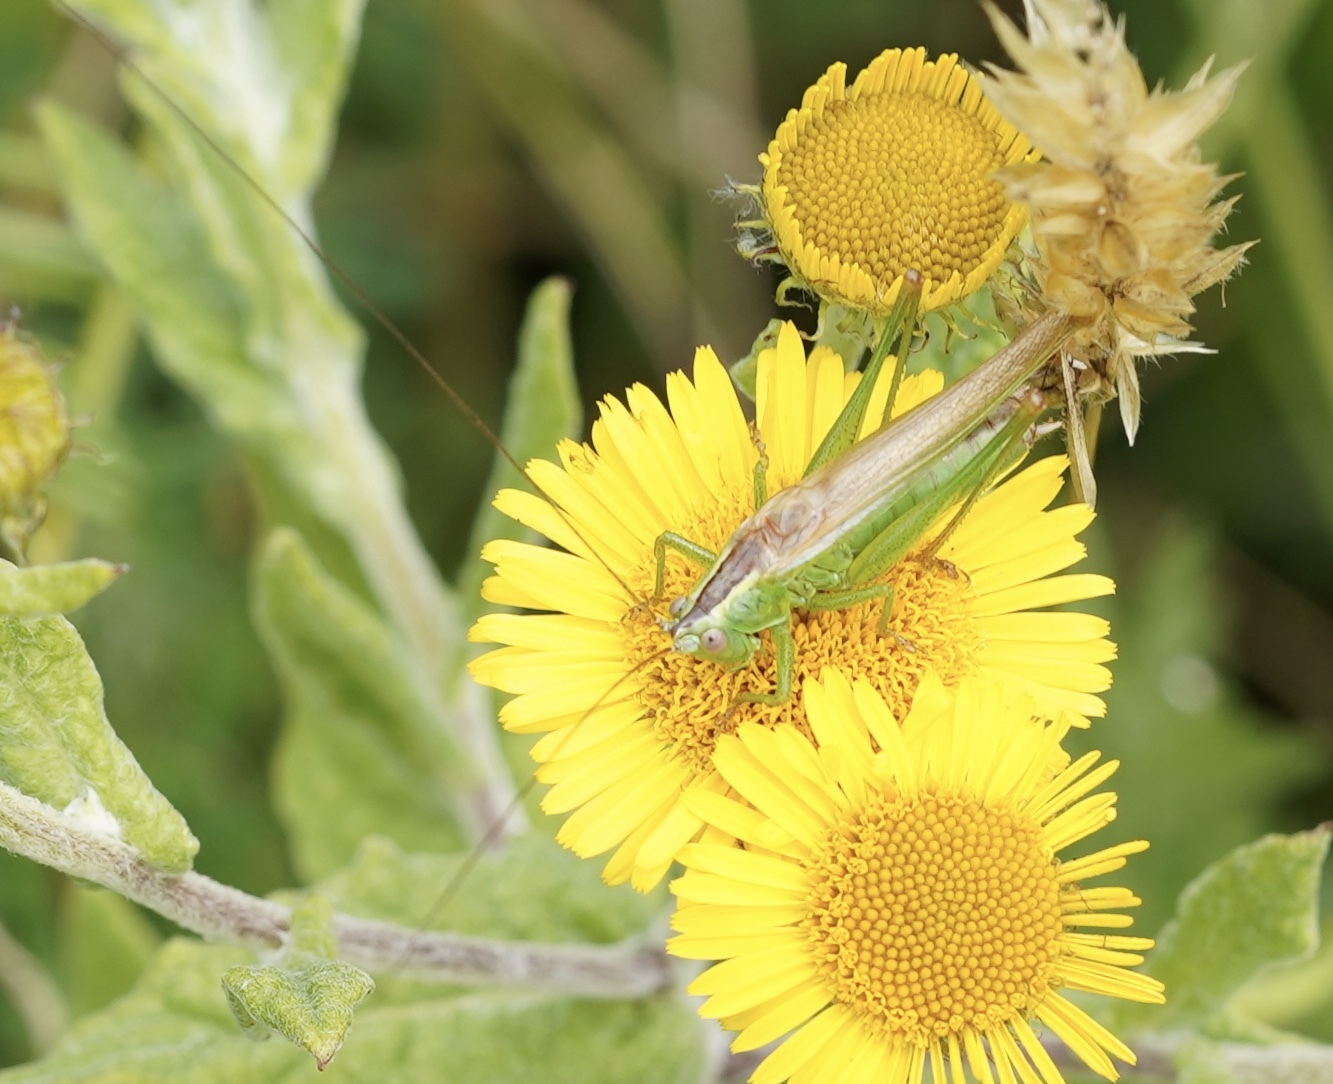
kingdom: Animalia
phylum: Arthropoda
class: Insecta
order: Orthoptera
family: Tettigoniidae
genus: Conocephalus
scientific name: Conocephalus fuscus
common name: Long-winged conehead
